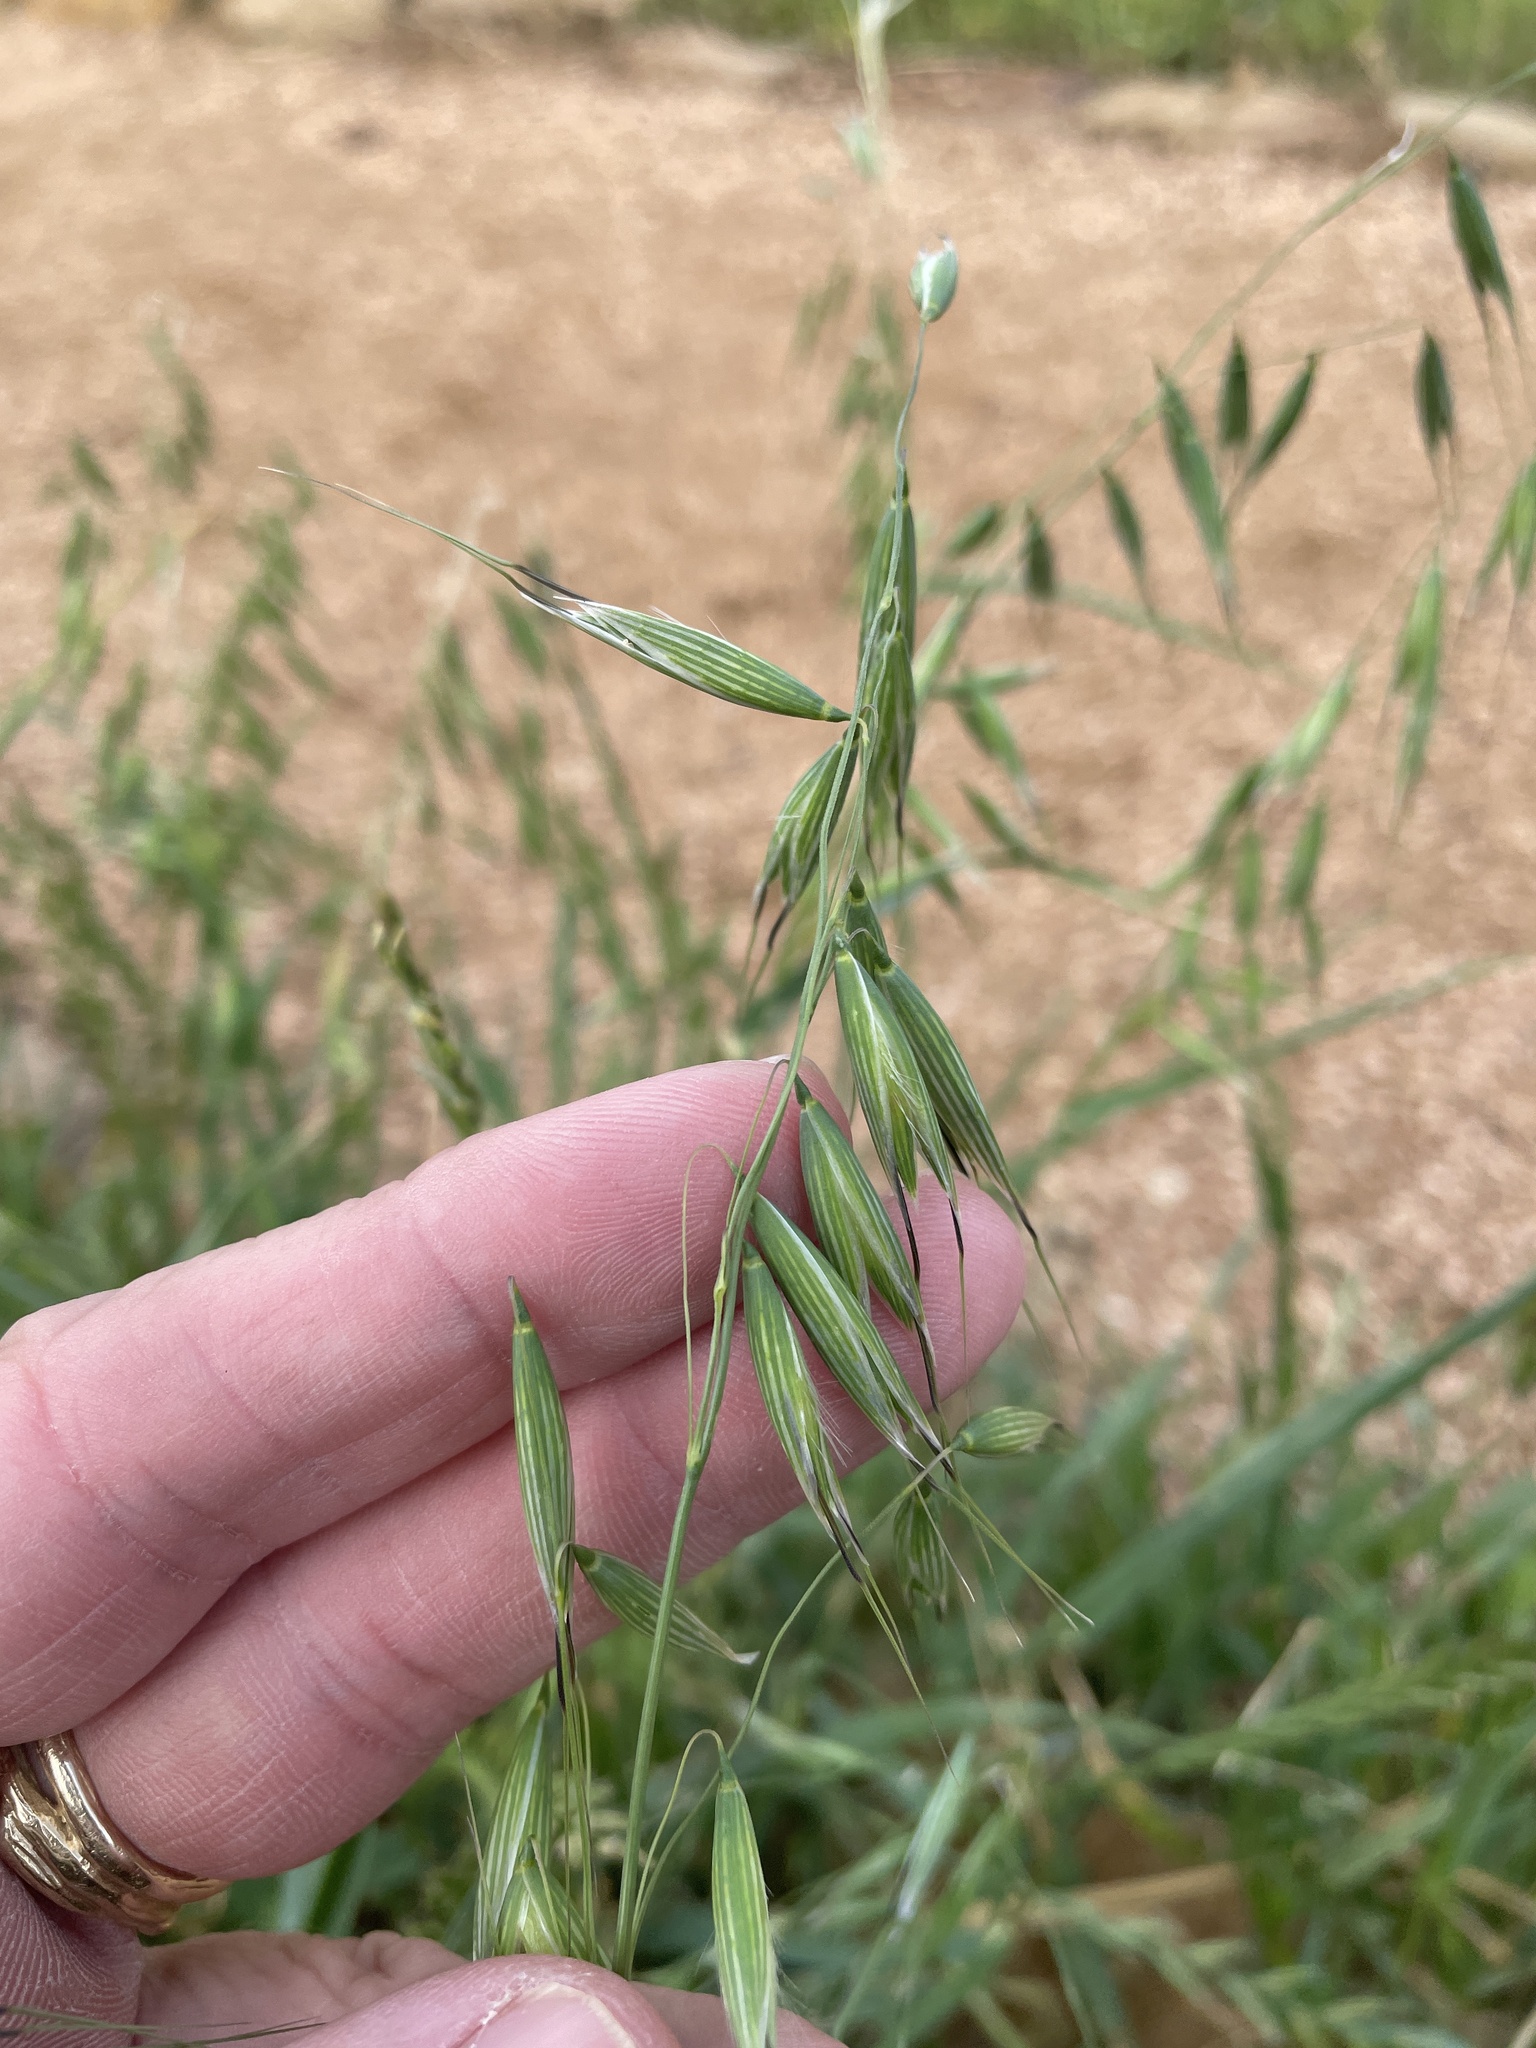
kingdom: Plantae
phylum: Tracheophyta
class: Liliopsida
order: Poales
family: Poaceae
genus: Avena
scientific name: Avena fatua
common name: Wild oat
